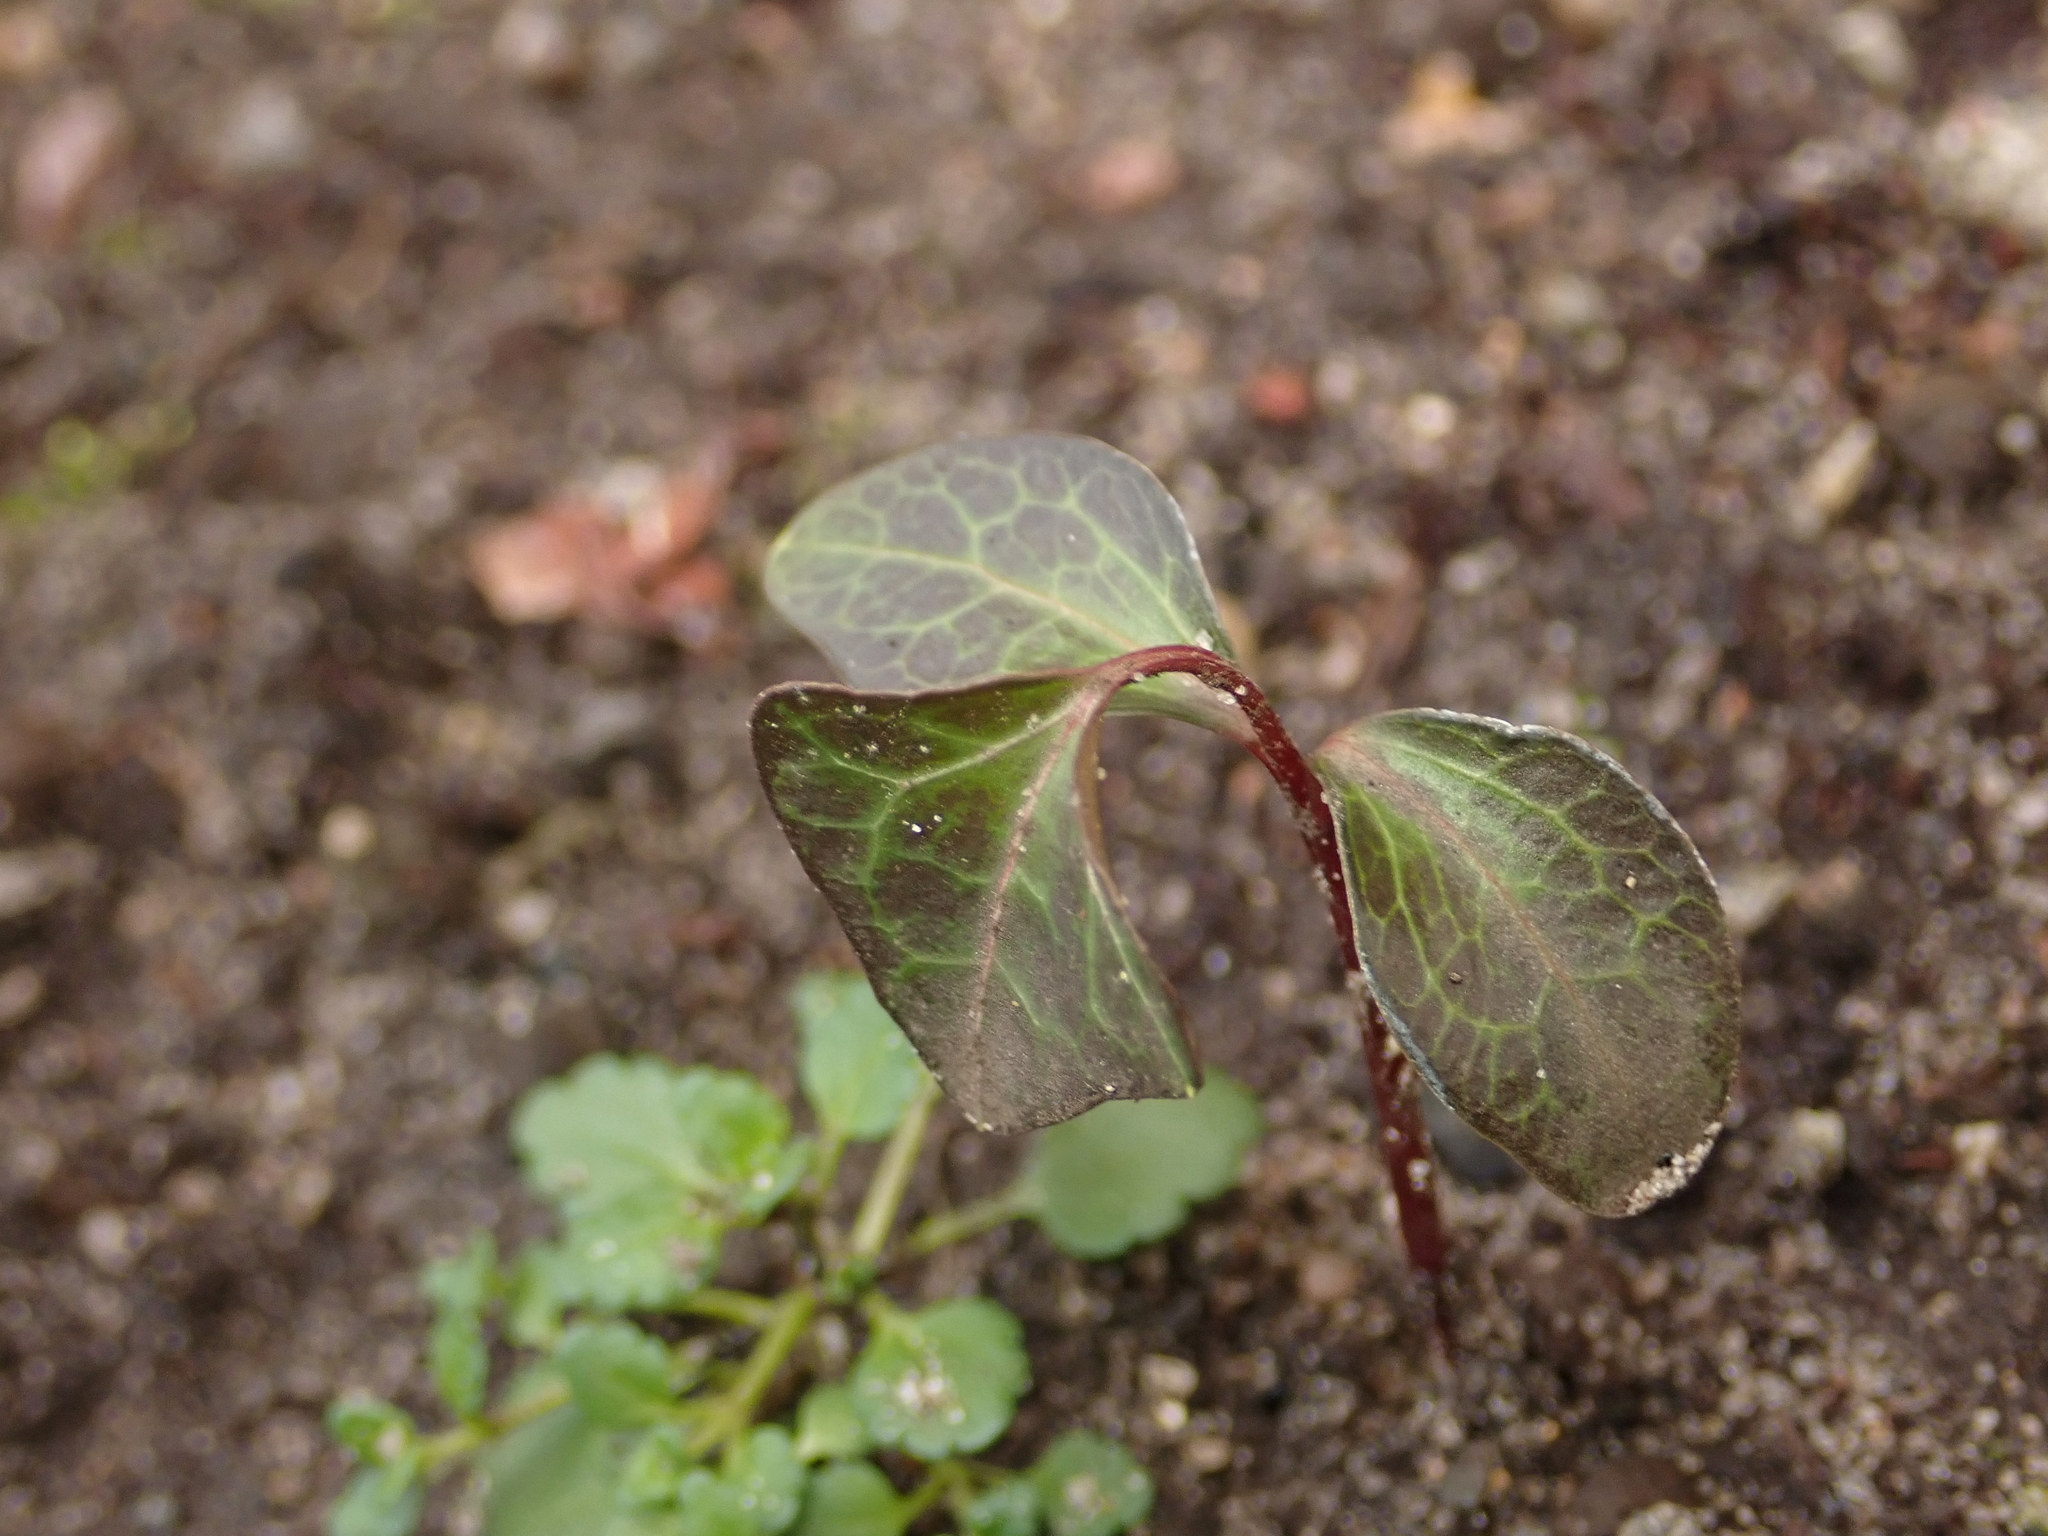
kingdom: Plantae
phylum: Tracheophyta
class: Magnoliopsida
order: Apiales
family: Araliaceae
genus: Hedera
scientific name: Hedera helix
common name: Ivy
